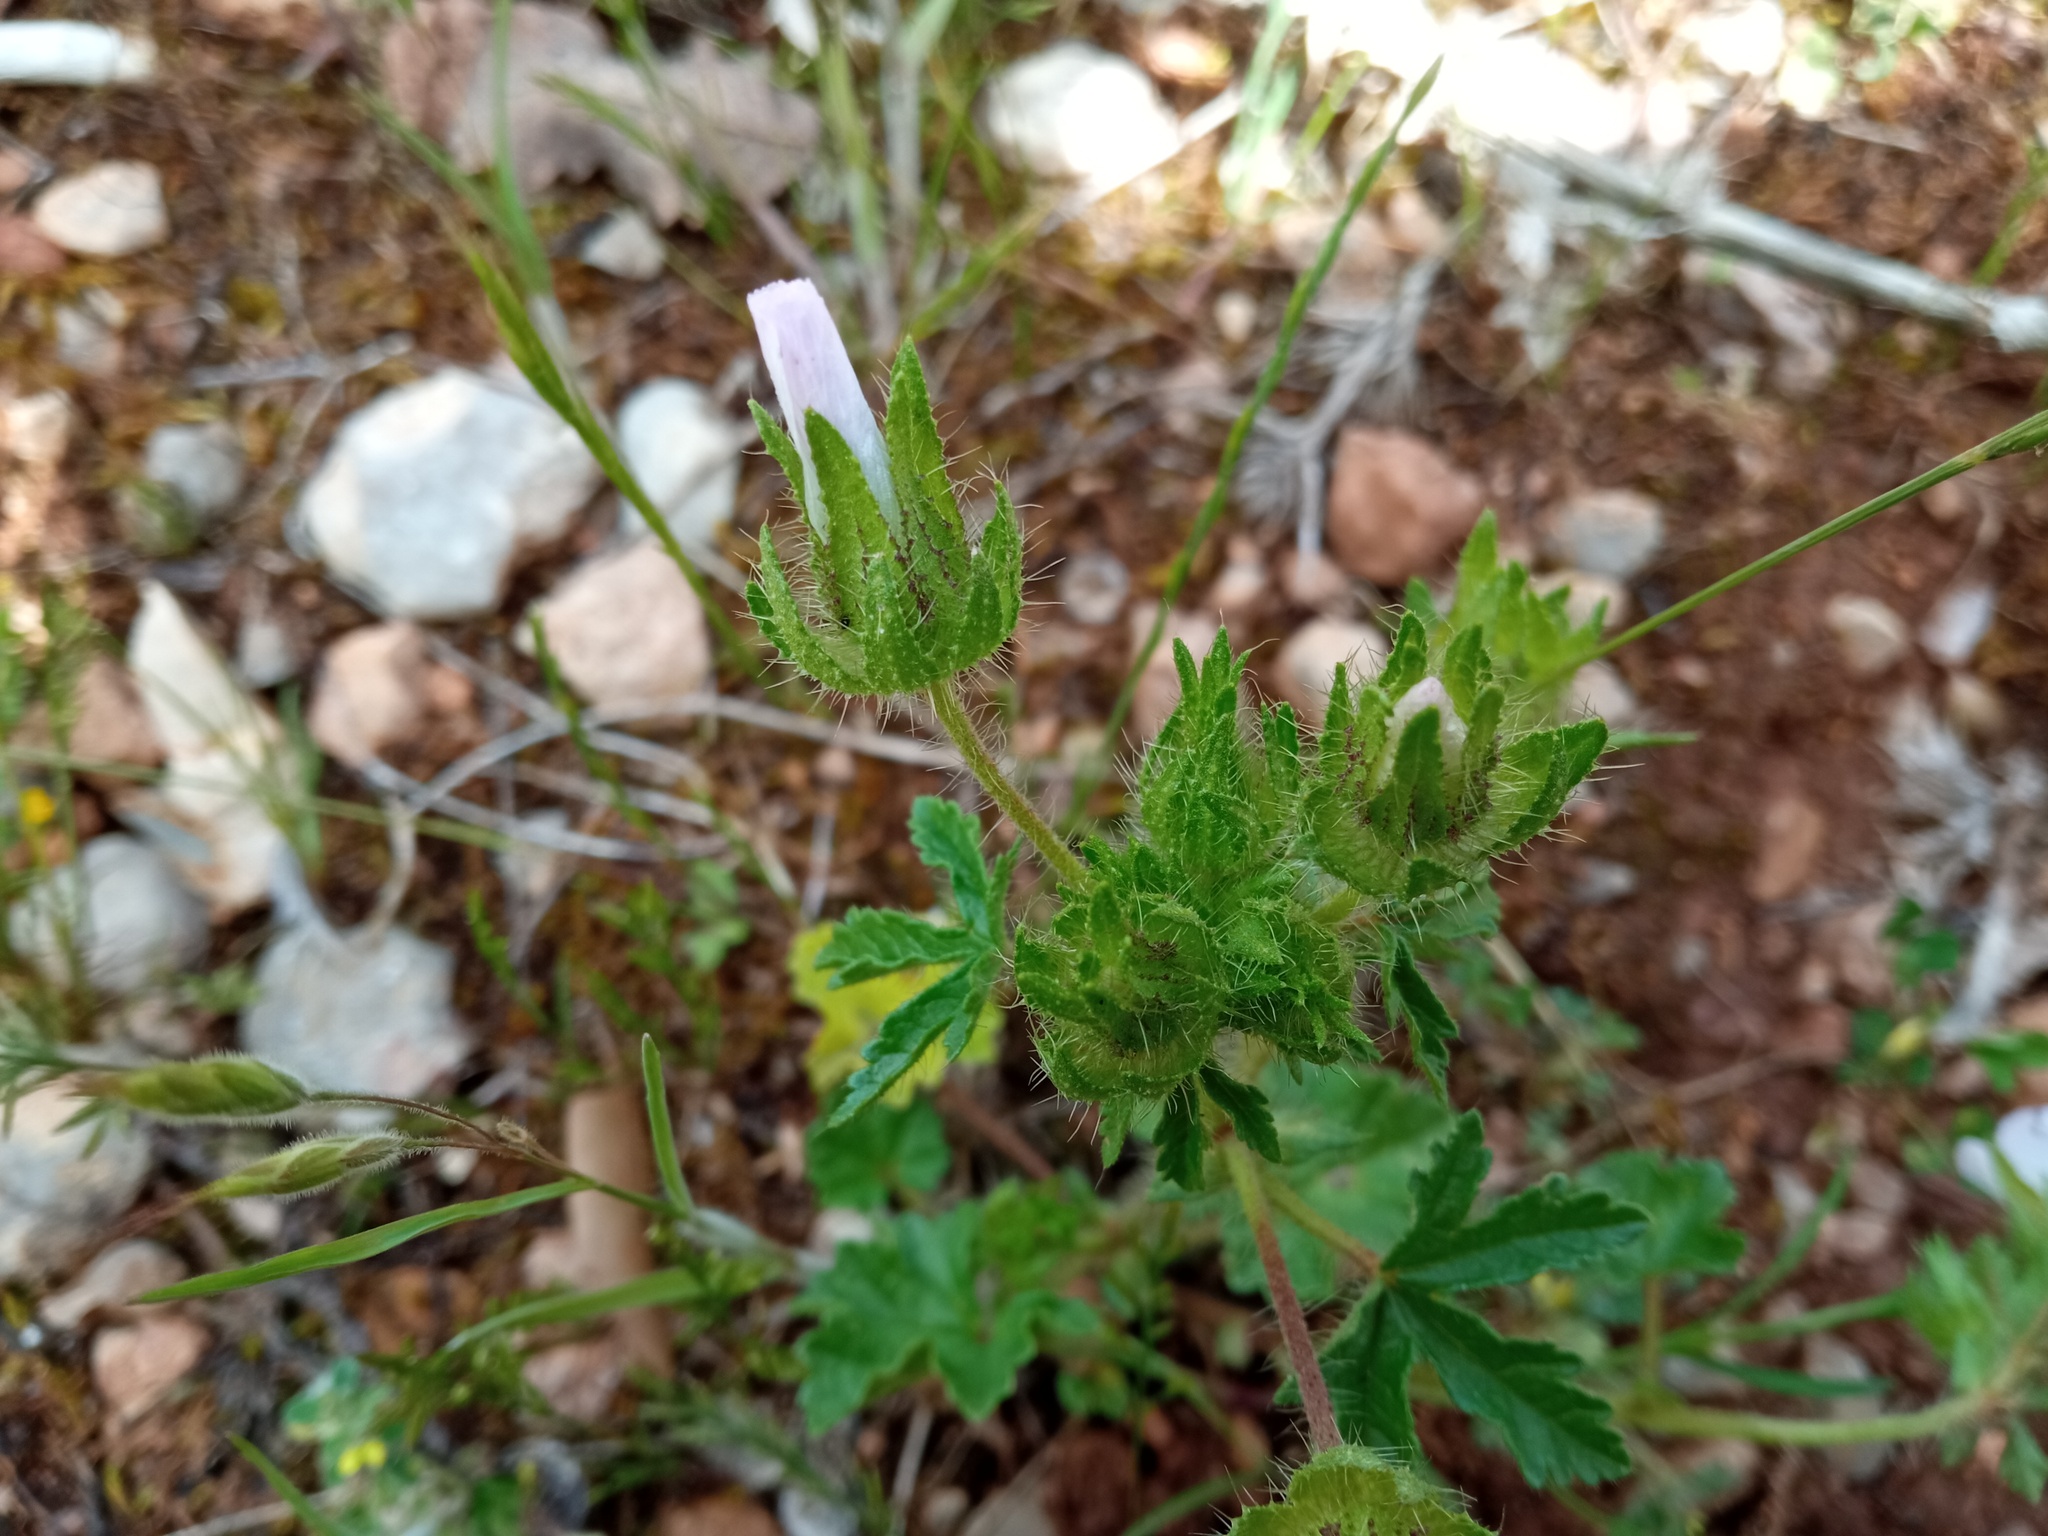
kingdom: Plantae
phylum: Tracheophyta
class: Magnoliopsida
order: Malvales
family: Malvaceae
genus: Althaea
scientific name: Althaea hirsuta
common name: Rough marsh-mallow
